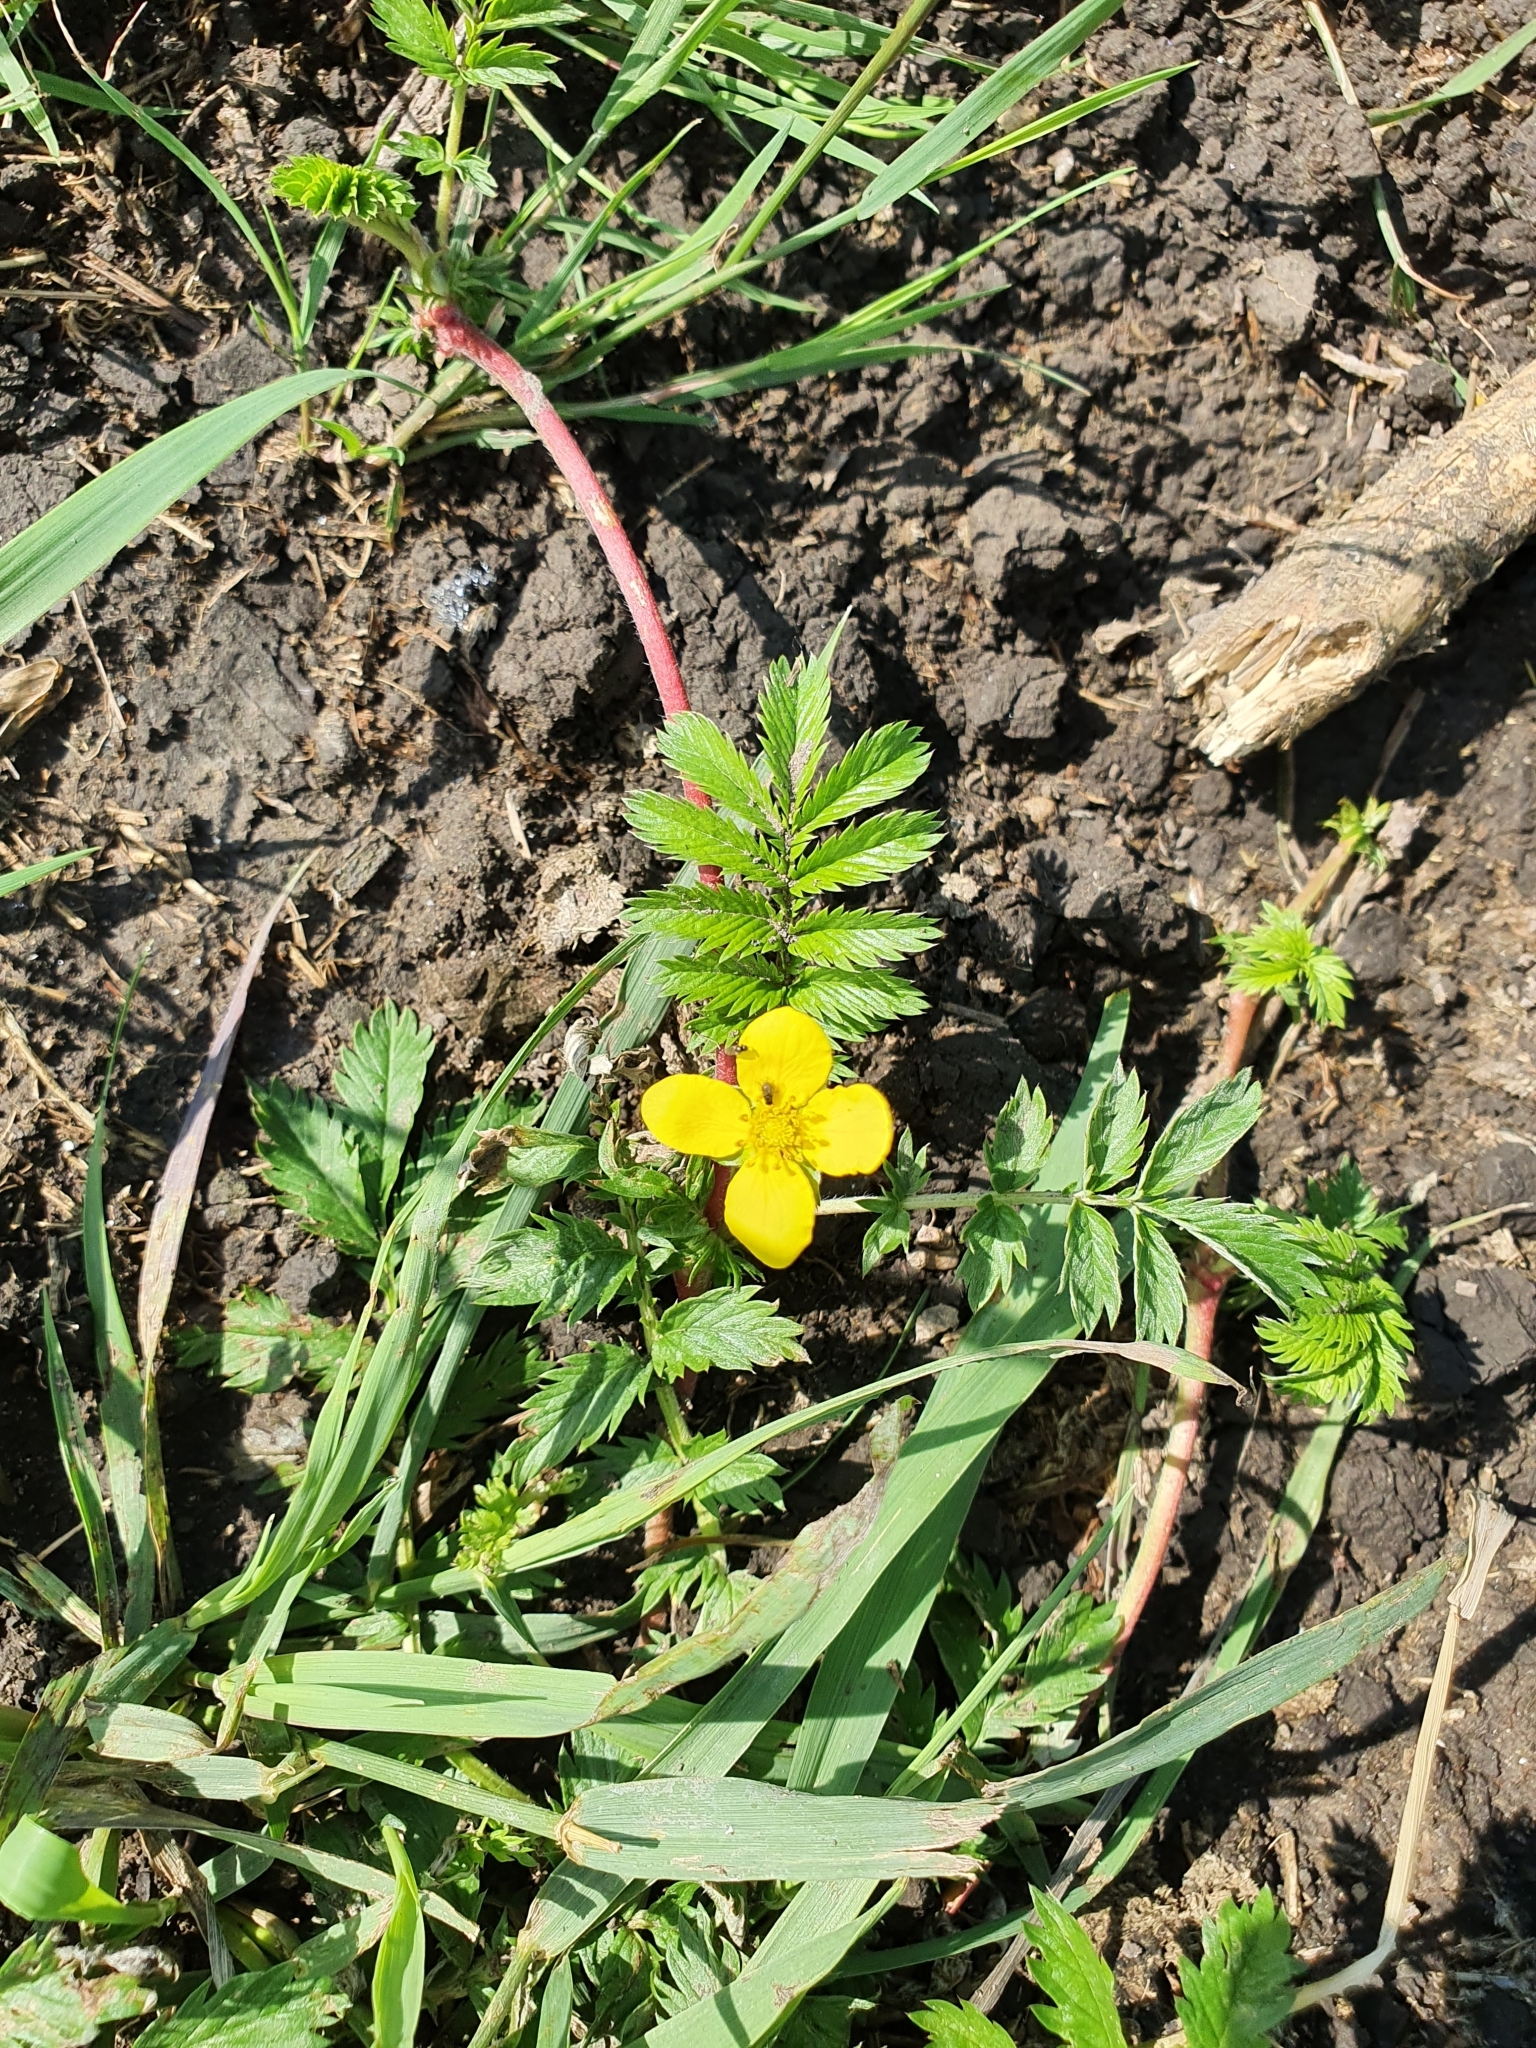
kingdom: Plantae
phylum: Tracheophyta
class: Magnoliopsida
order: Rosales
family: Rosaceae
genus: Argentina
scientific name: Argentina anserina
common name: Common silverweed
